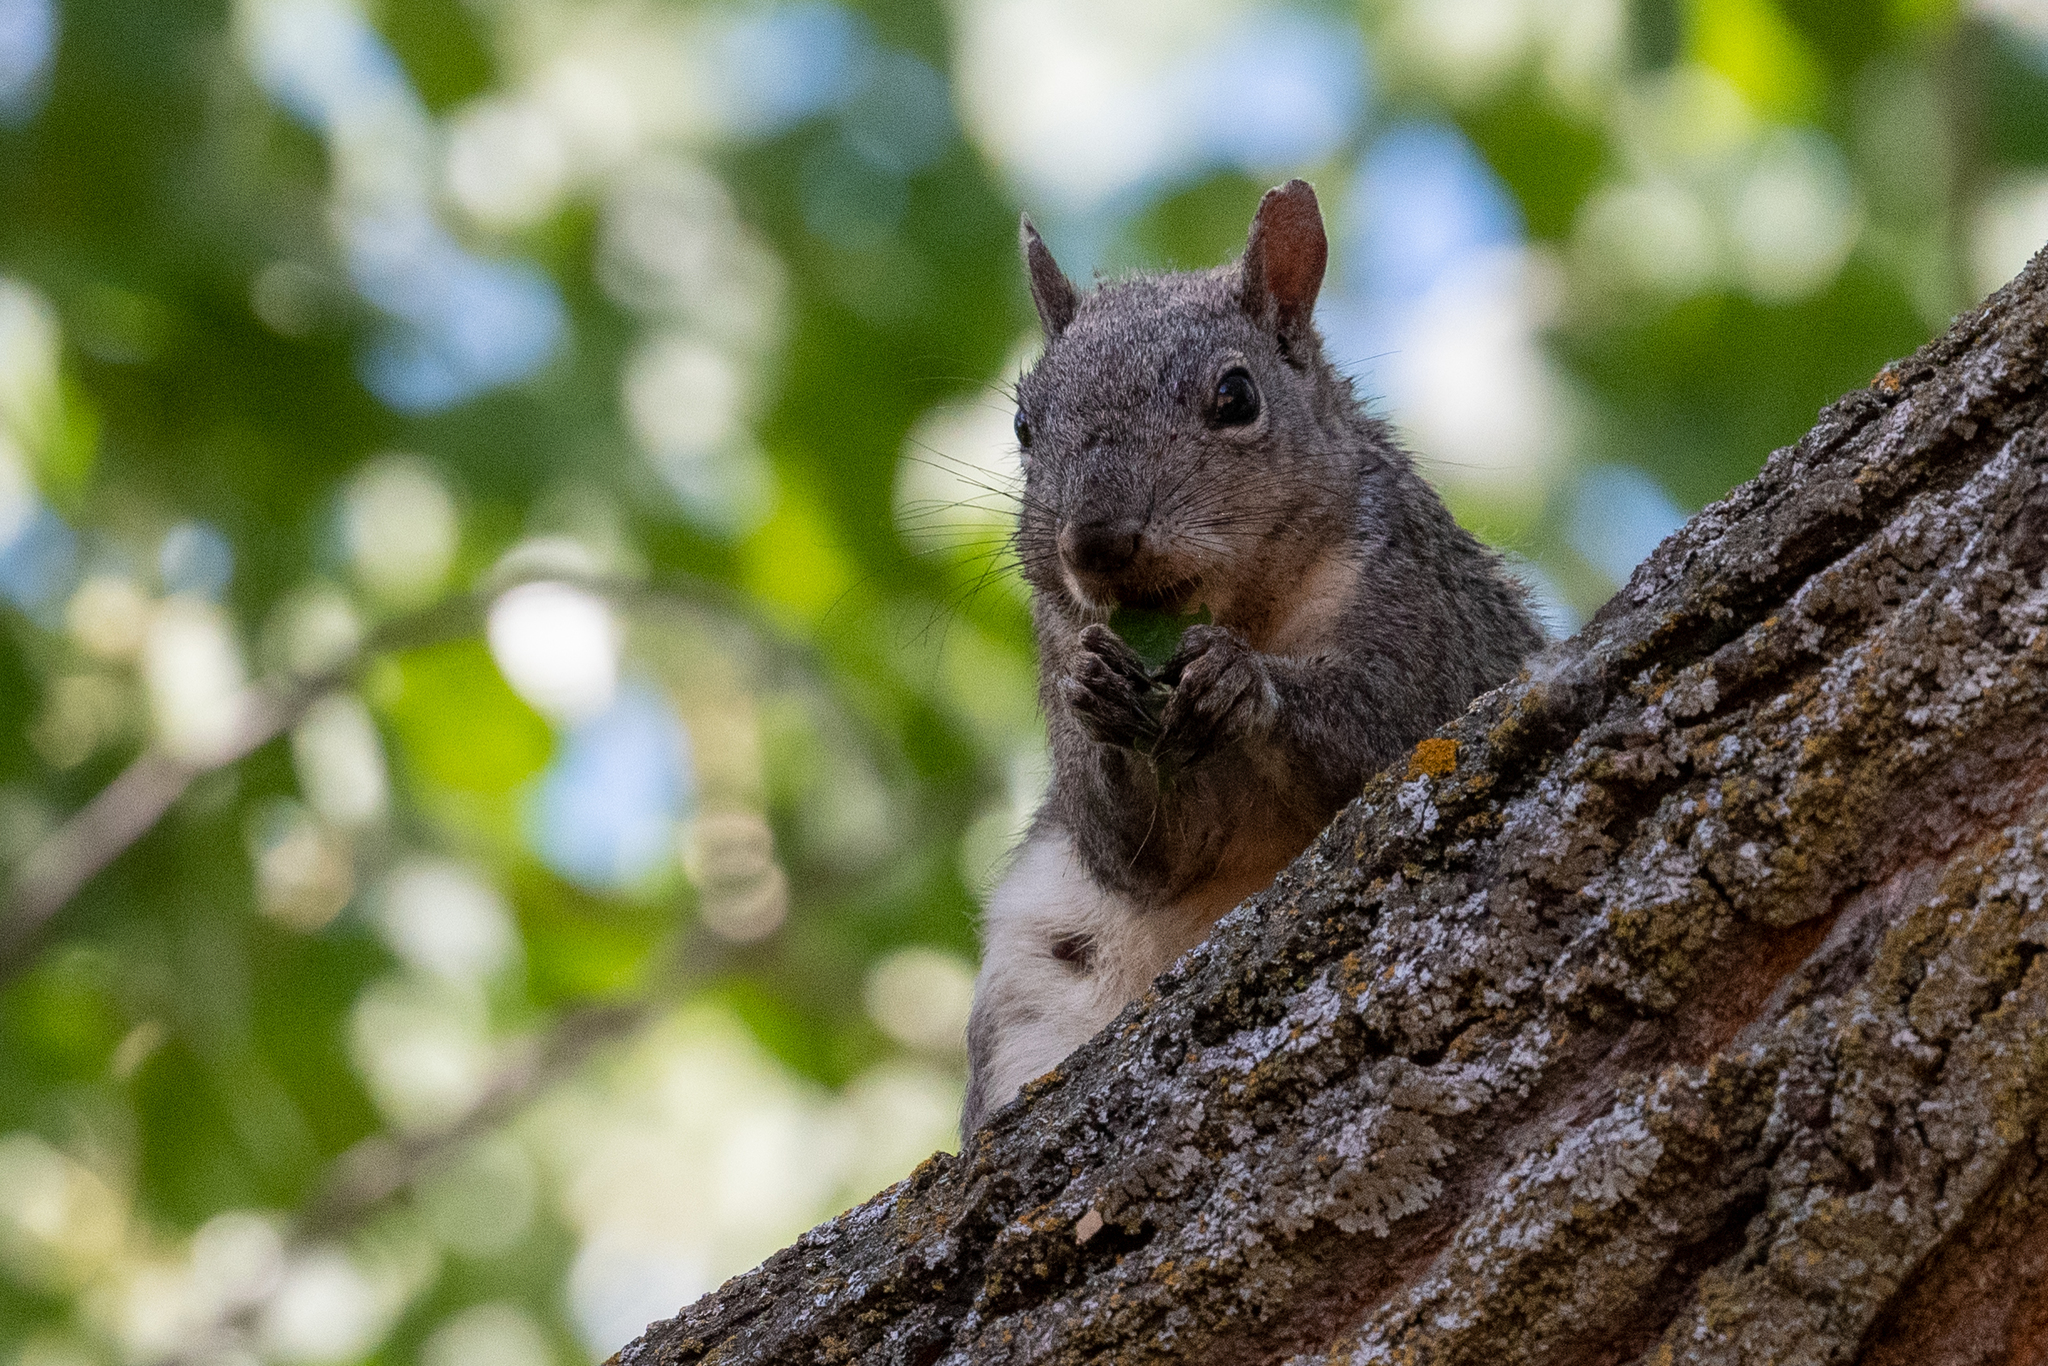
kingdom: Animalia
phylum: Chordata
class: Mammalia
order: Rodentia
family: Sciuridae
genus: Sciurus
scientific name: Sciurus griseus
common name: Western gray squirrel
